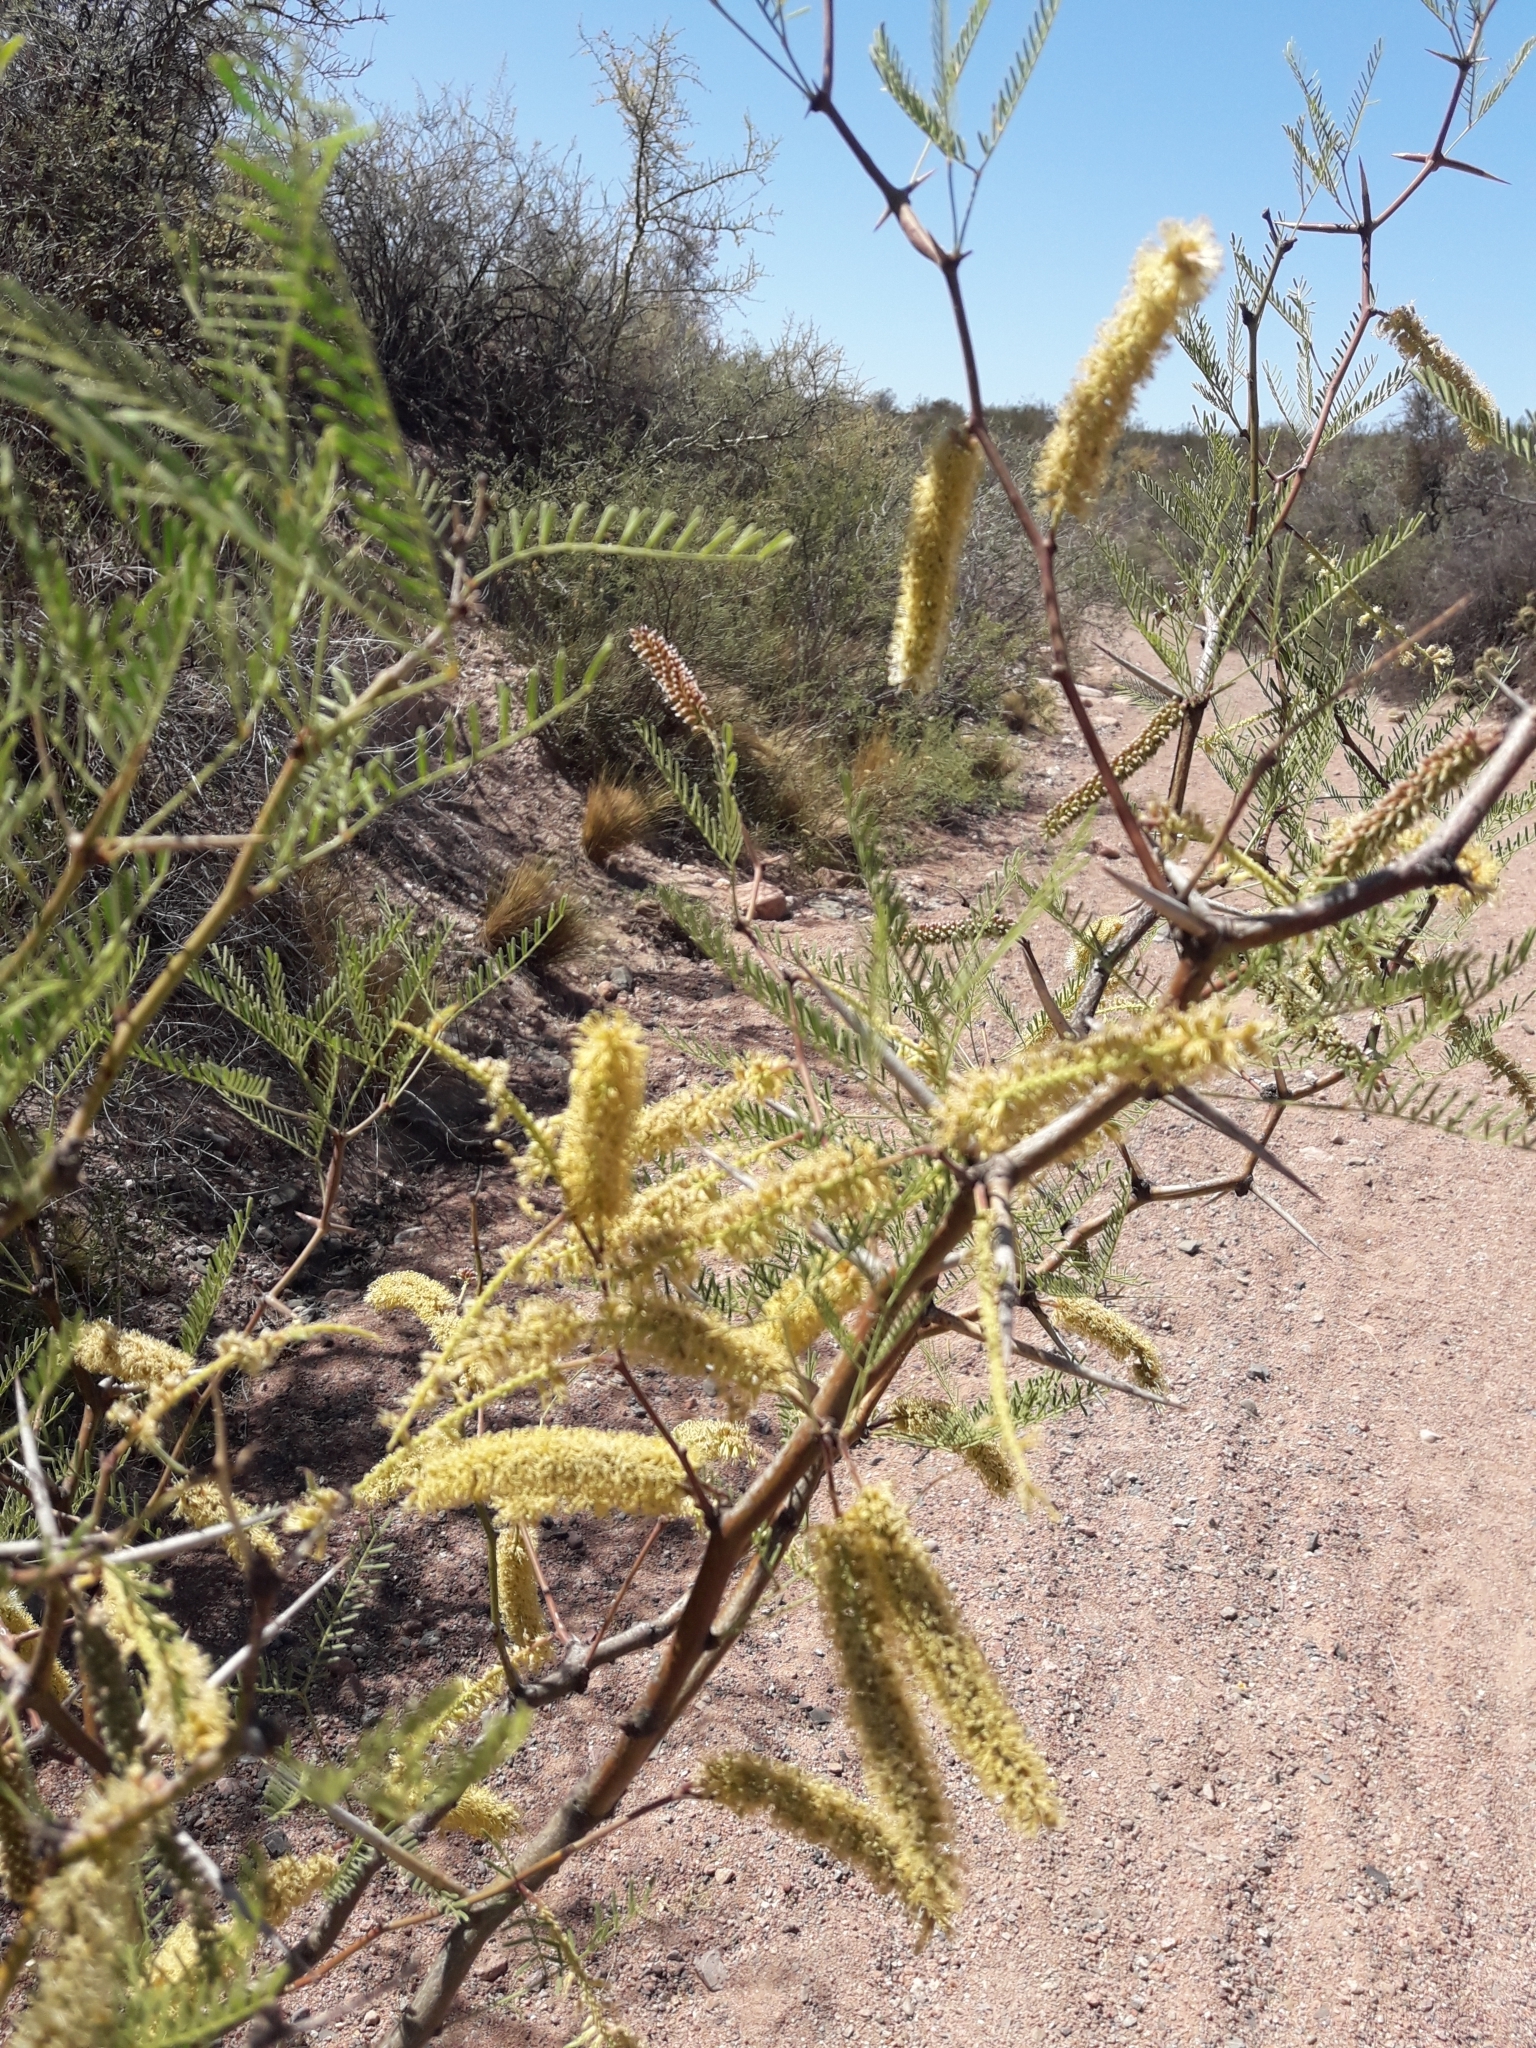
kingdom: Plantae
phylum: Tracheophyta
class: Magnoliopsida
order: Fabales
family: Fabaceae
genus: Prosopis
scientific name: Prosopis flexuosa
